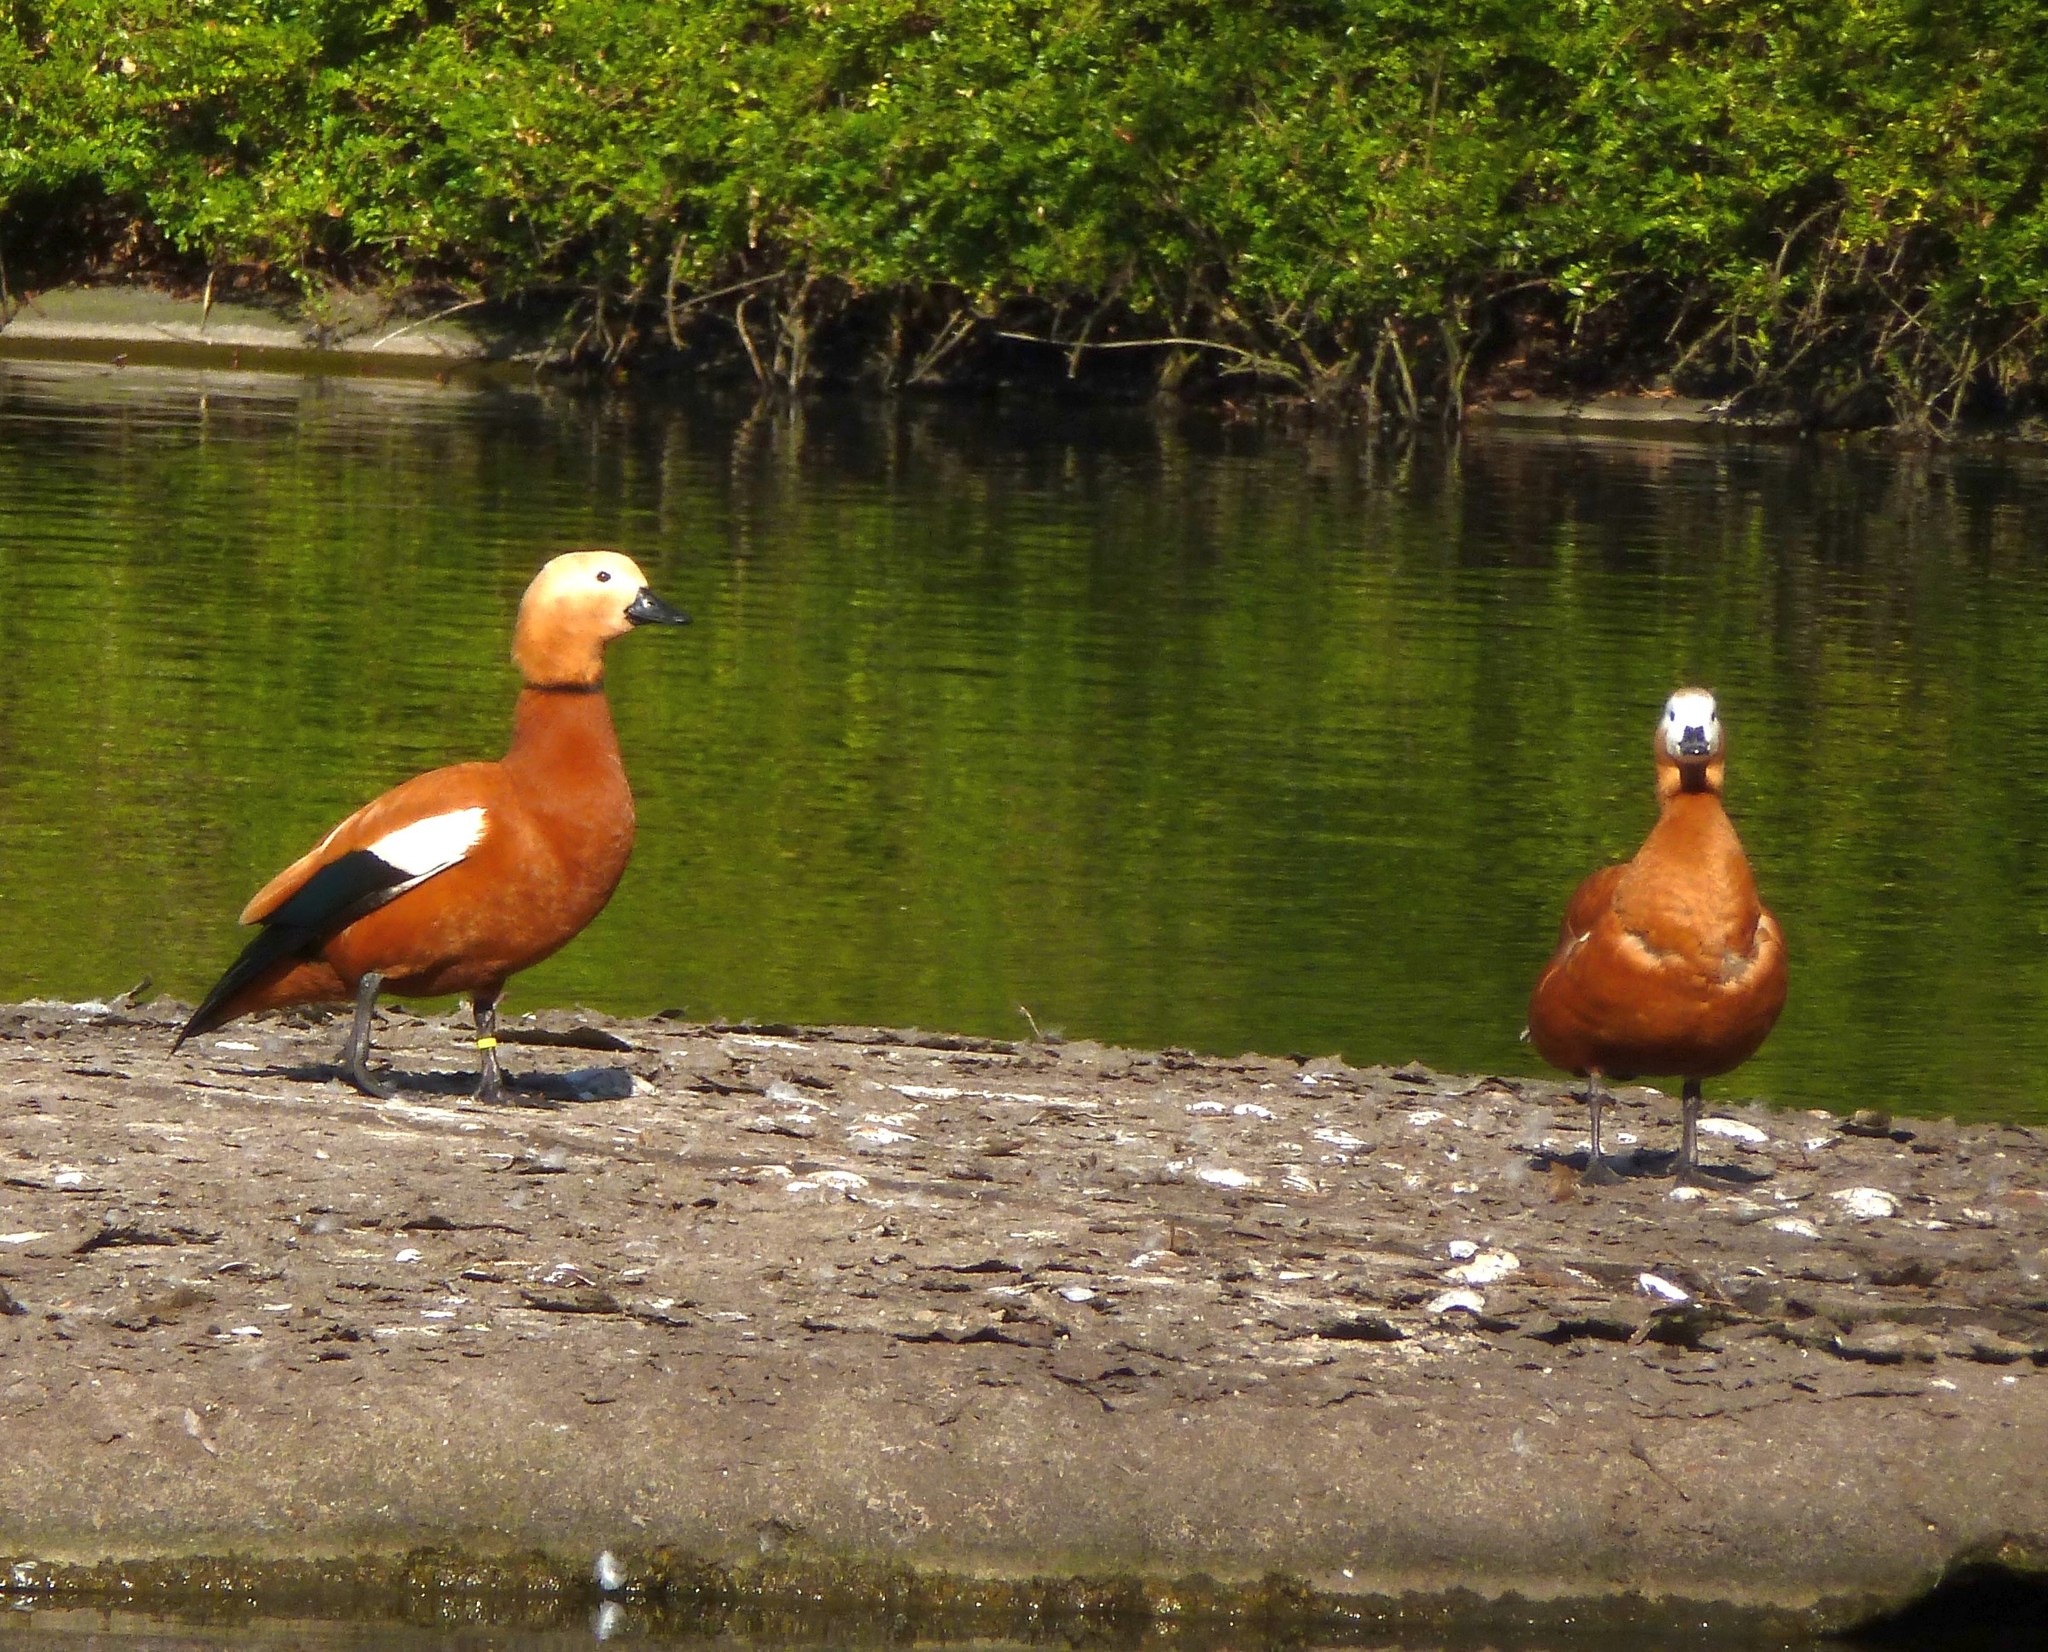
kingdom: Animalia
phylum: Chordata
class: Aves
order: Anseriformes
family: Anatidae
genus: Tadorna
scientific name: Tadorna ferruginea
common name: Ruddy shelduck
